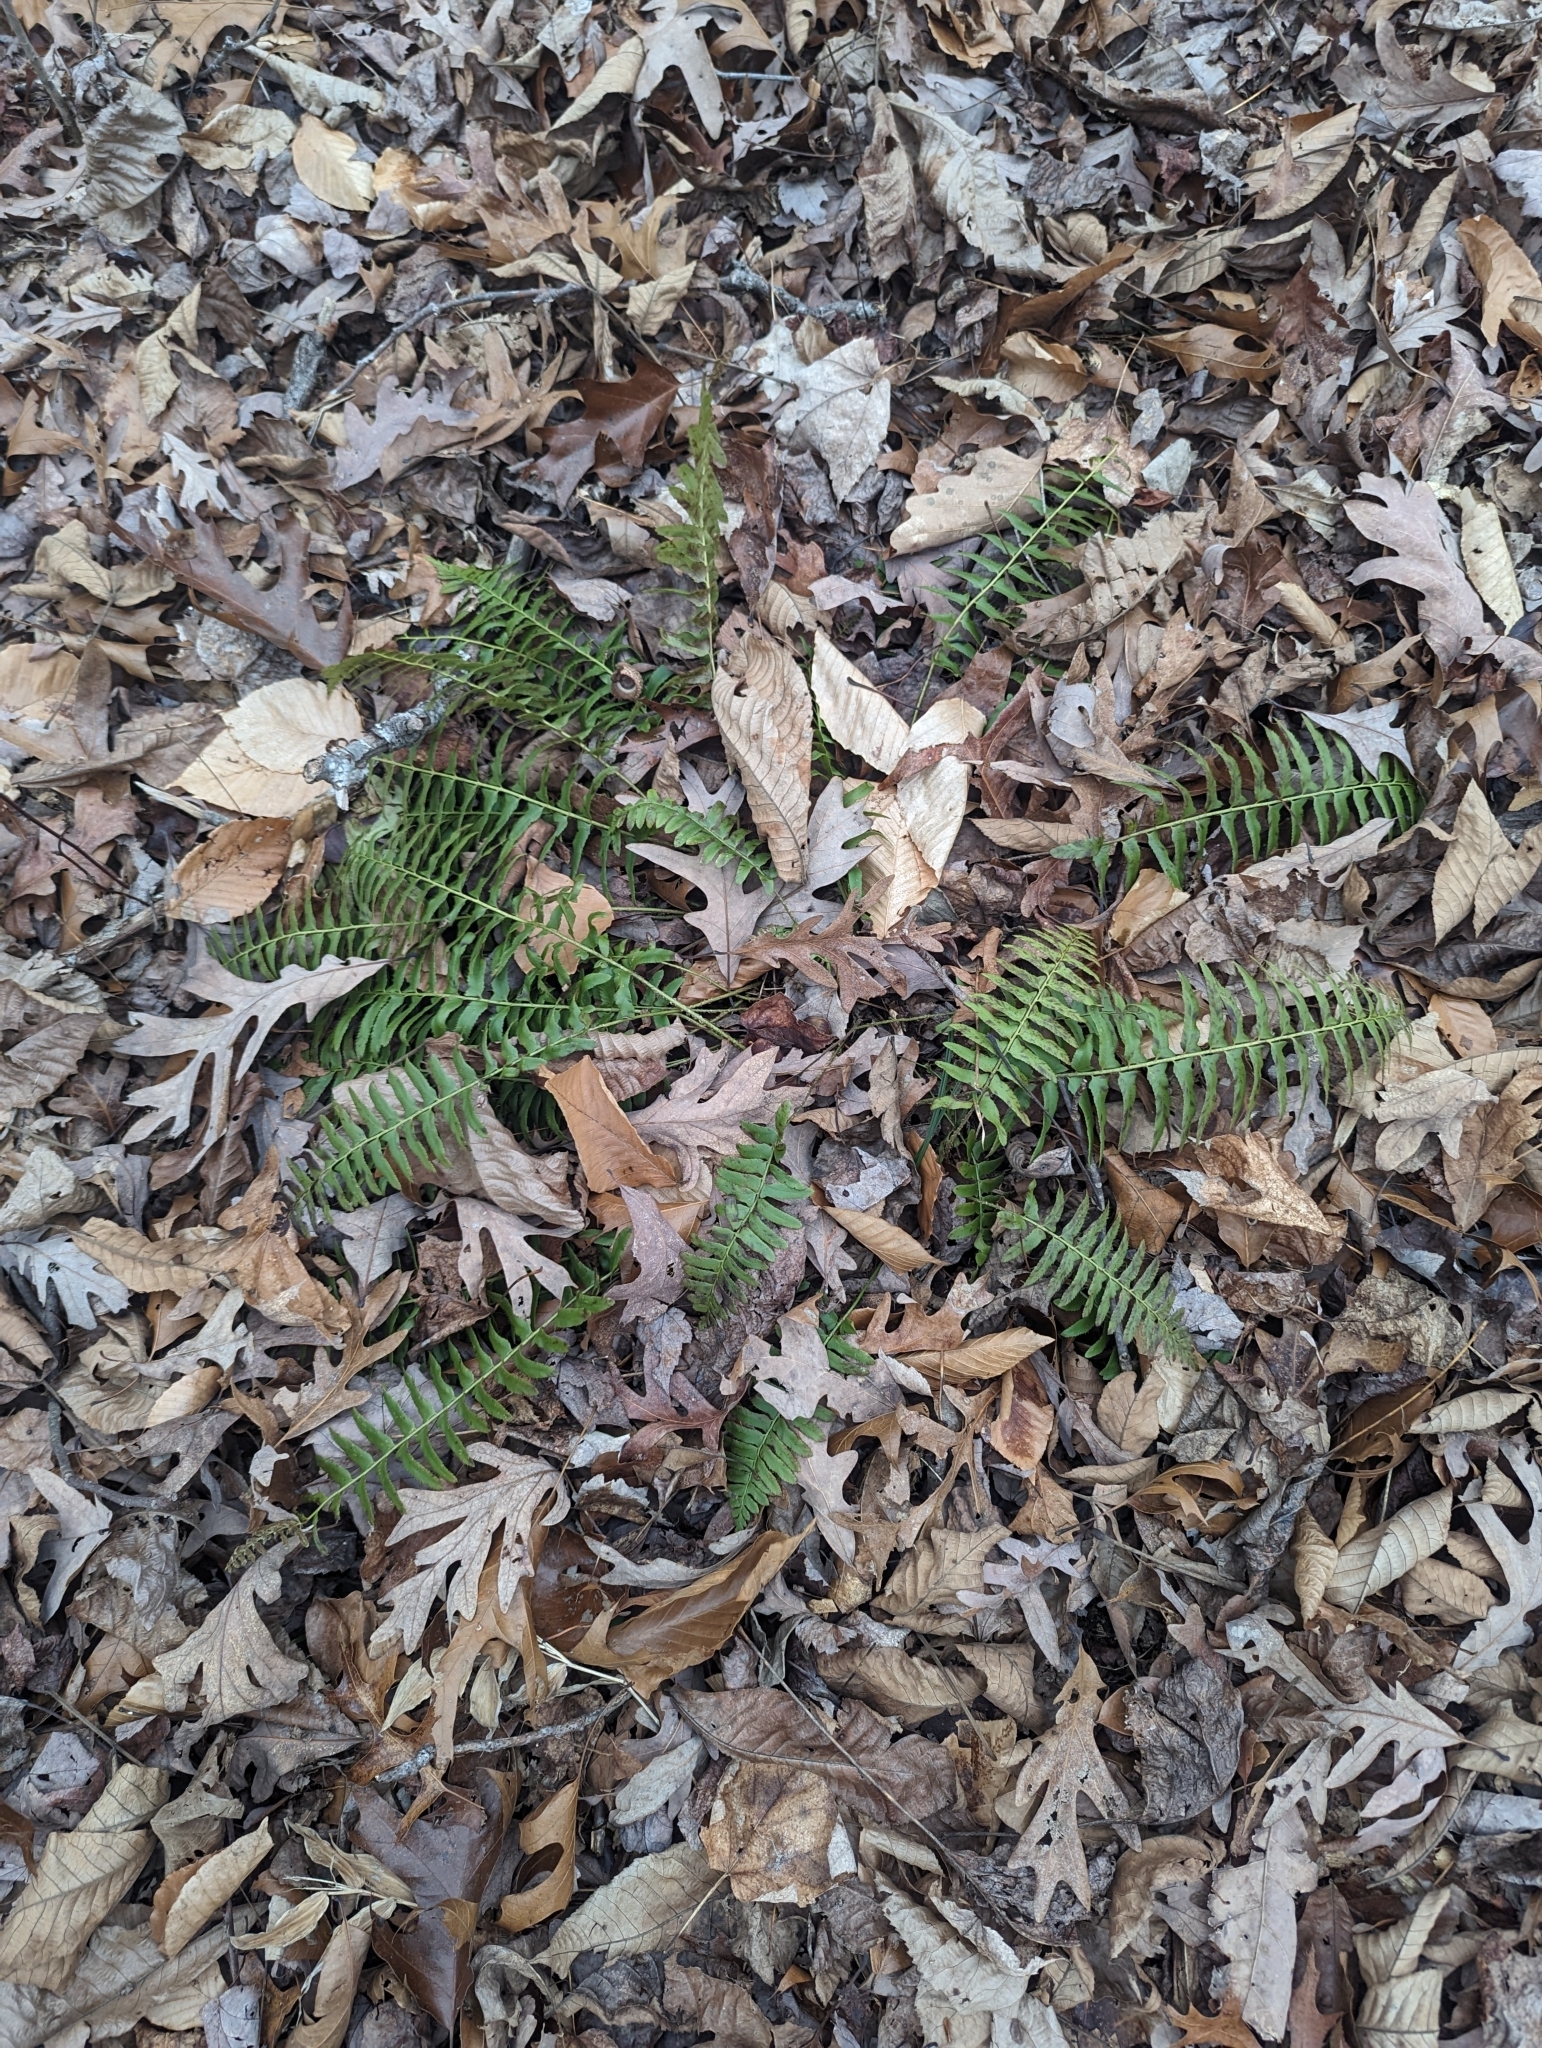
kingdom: Plantae
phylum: Tracheophyta
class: Polypodiopsida
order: Polypodiales
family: Dryopteridaceae
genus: Polystichum
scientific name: Polystichum acrostichoides
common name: Christmas fern
